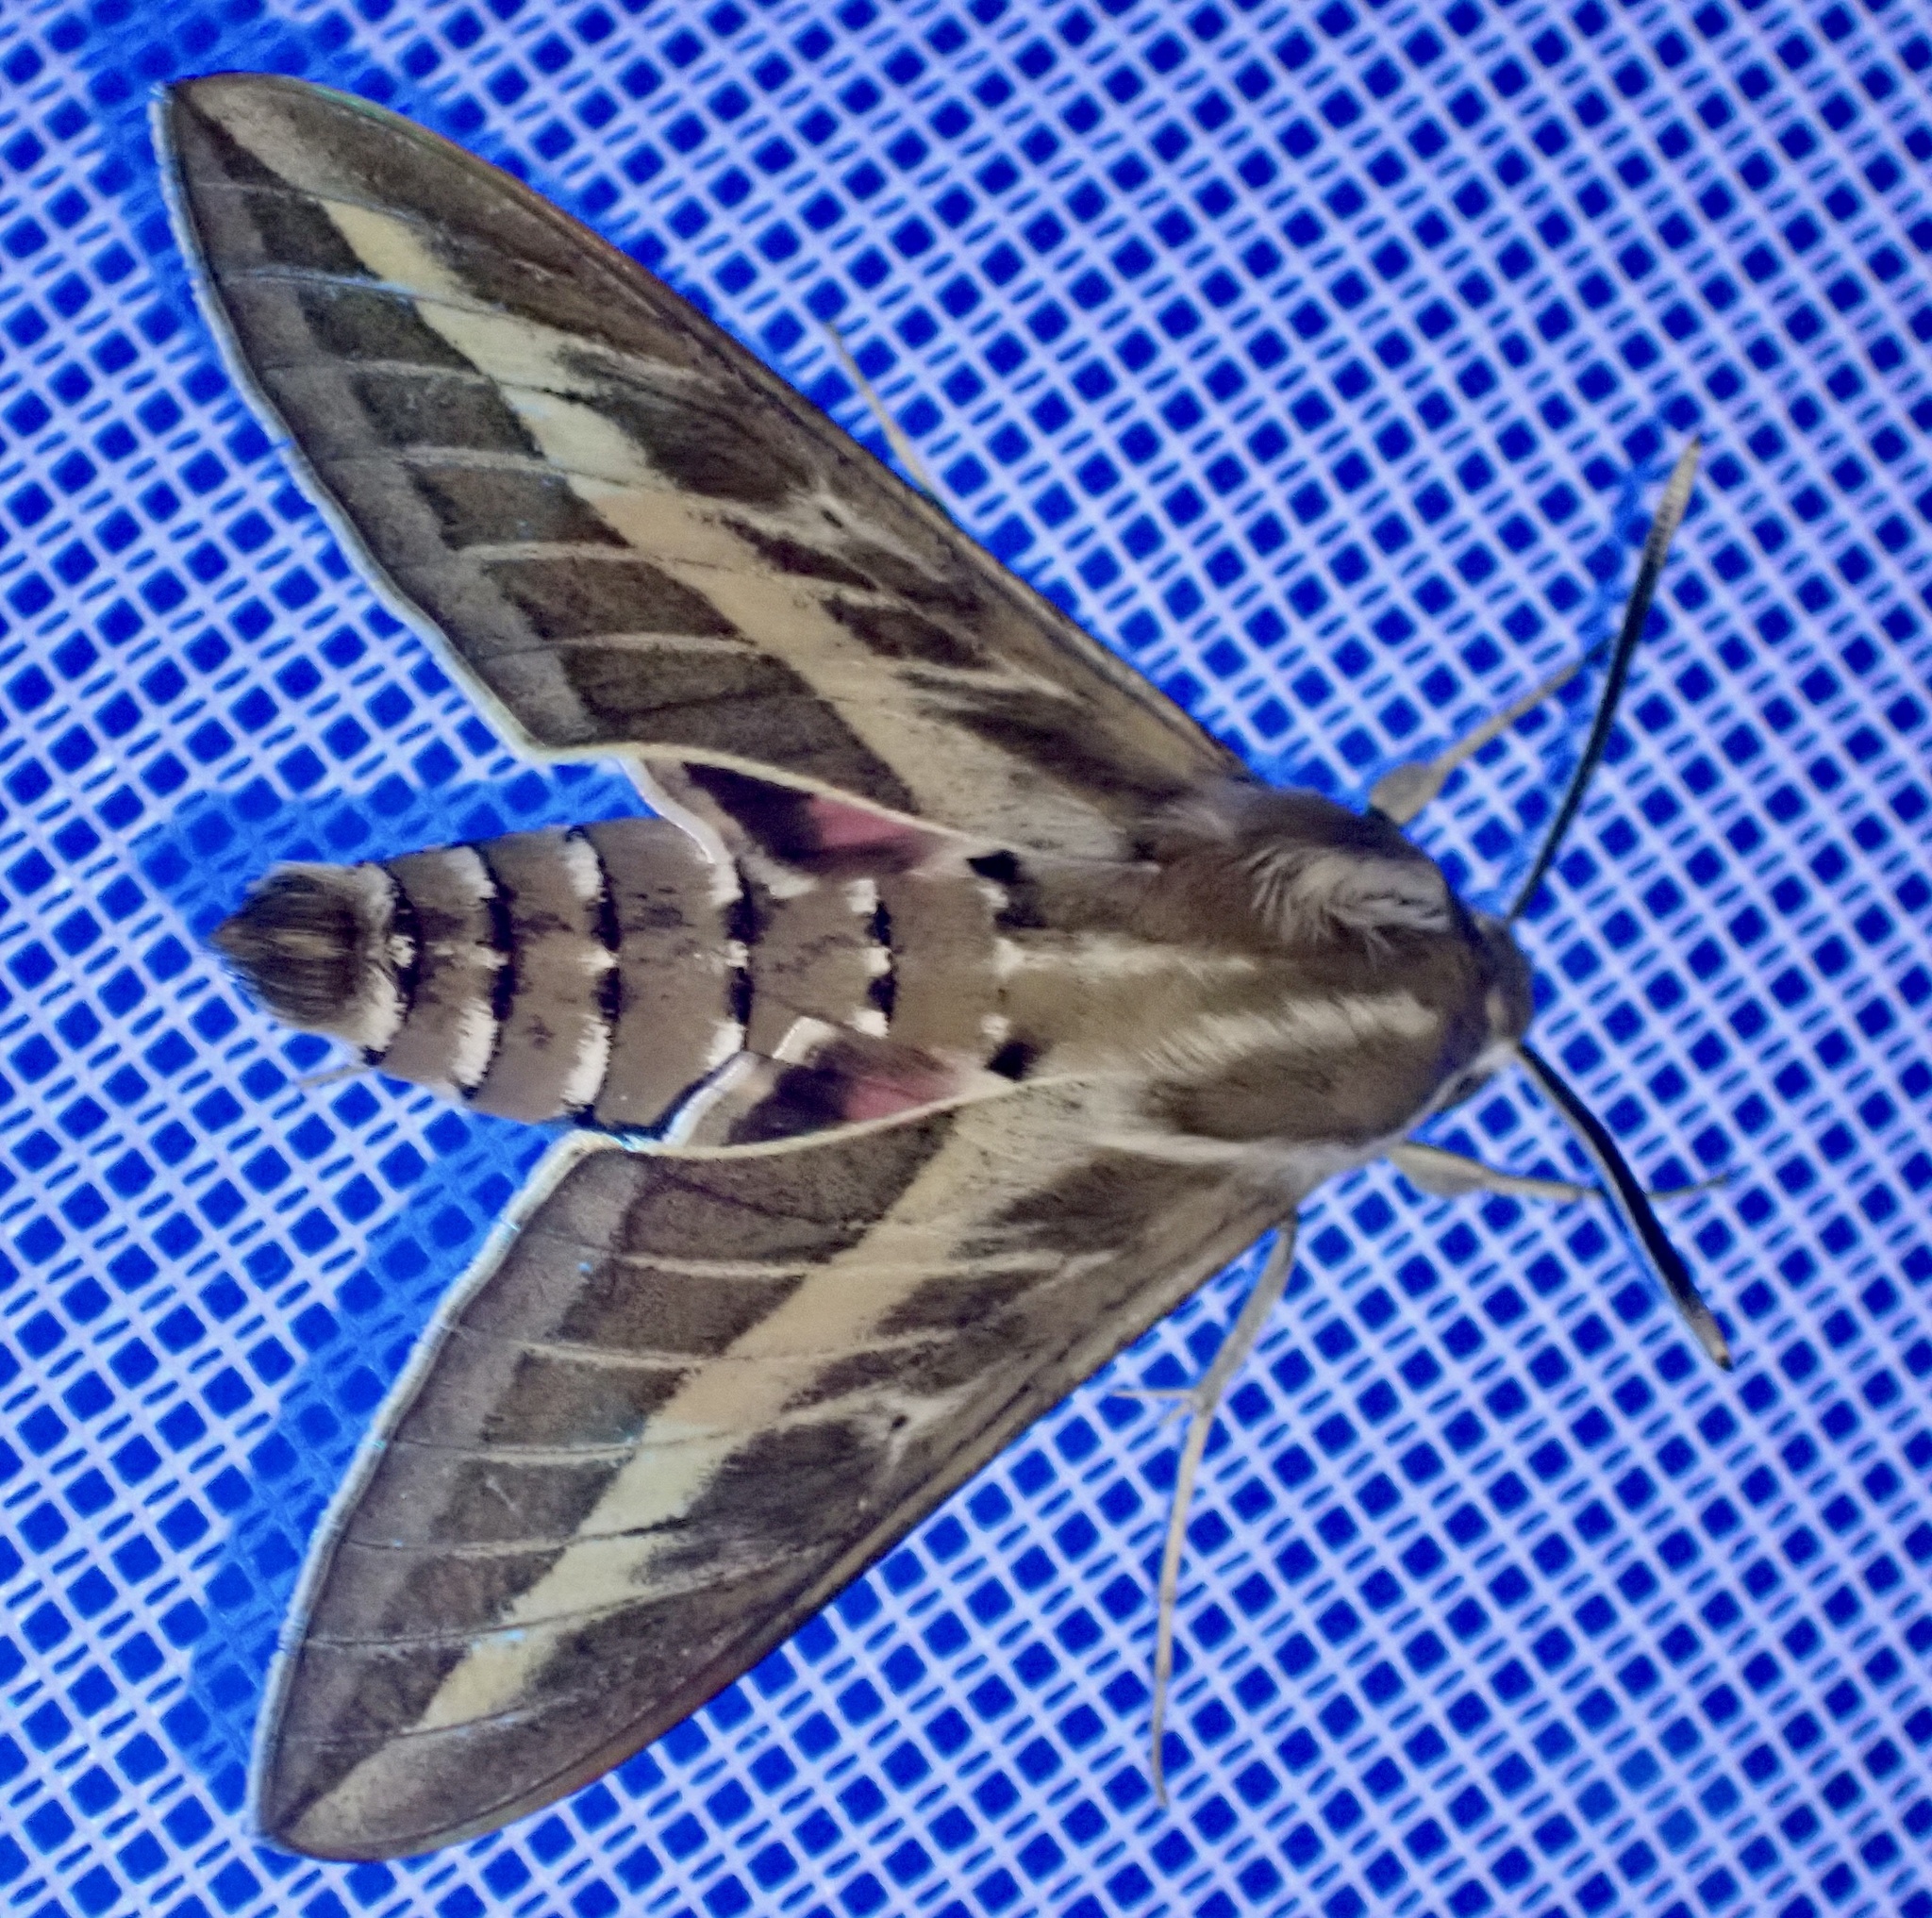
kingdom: Animalia
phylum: Arthropoda
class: Insecta
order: Lepidoptera
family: Sphingidae
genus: Hyles
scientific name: Hyles livornica
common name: Striped hawk-moth
